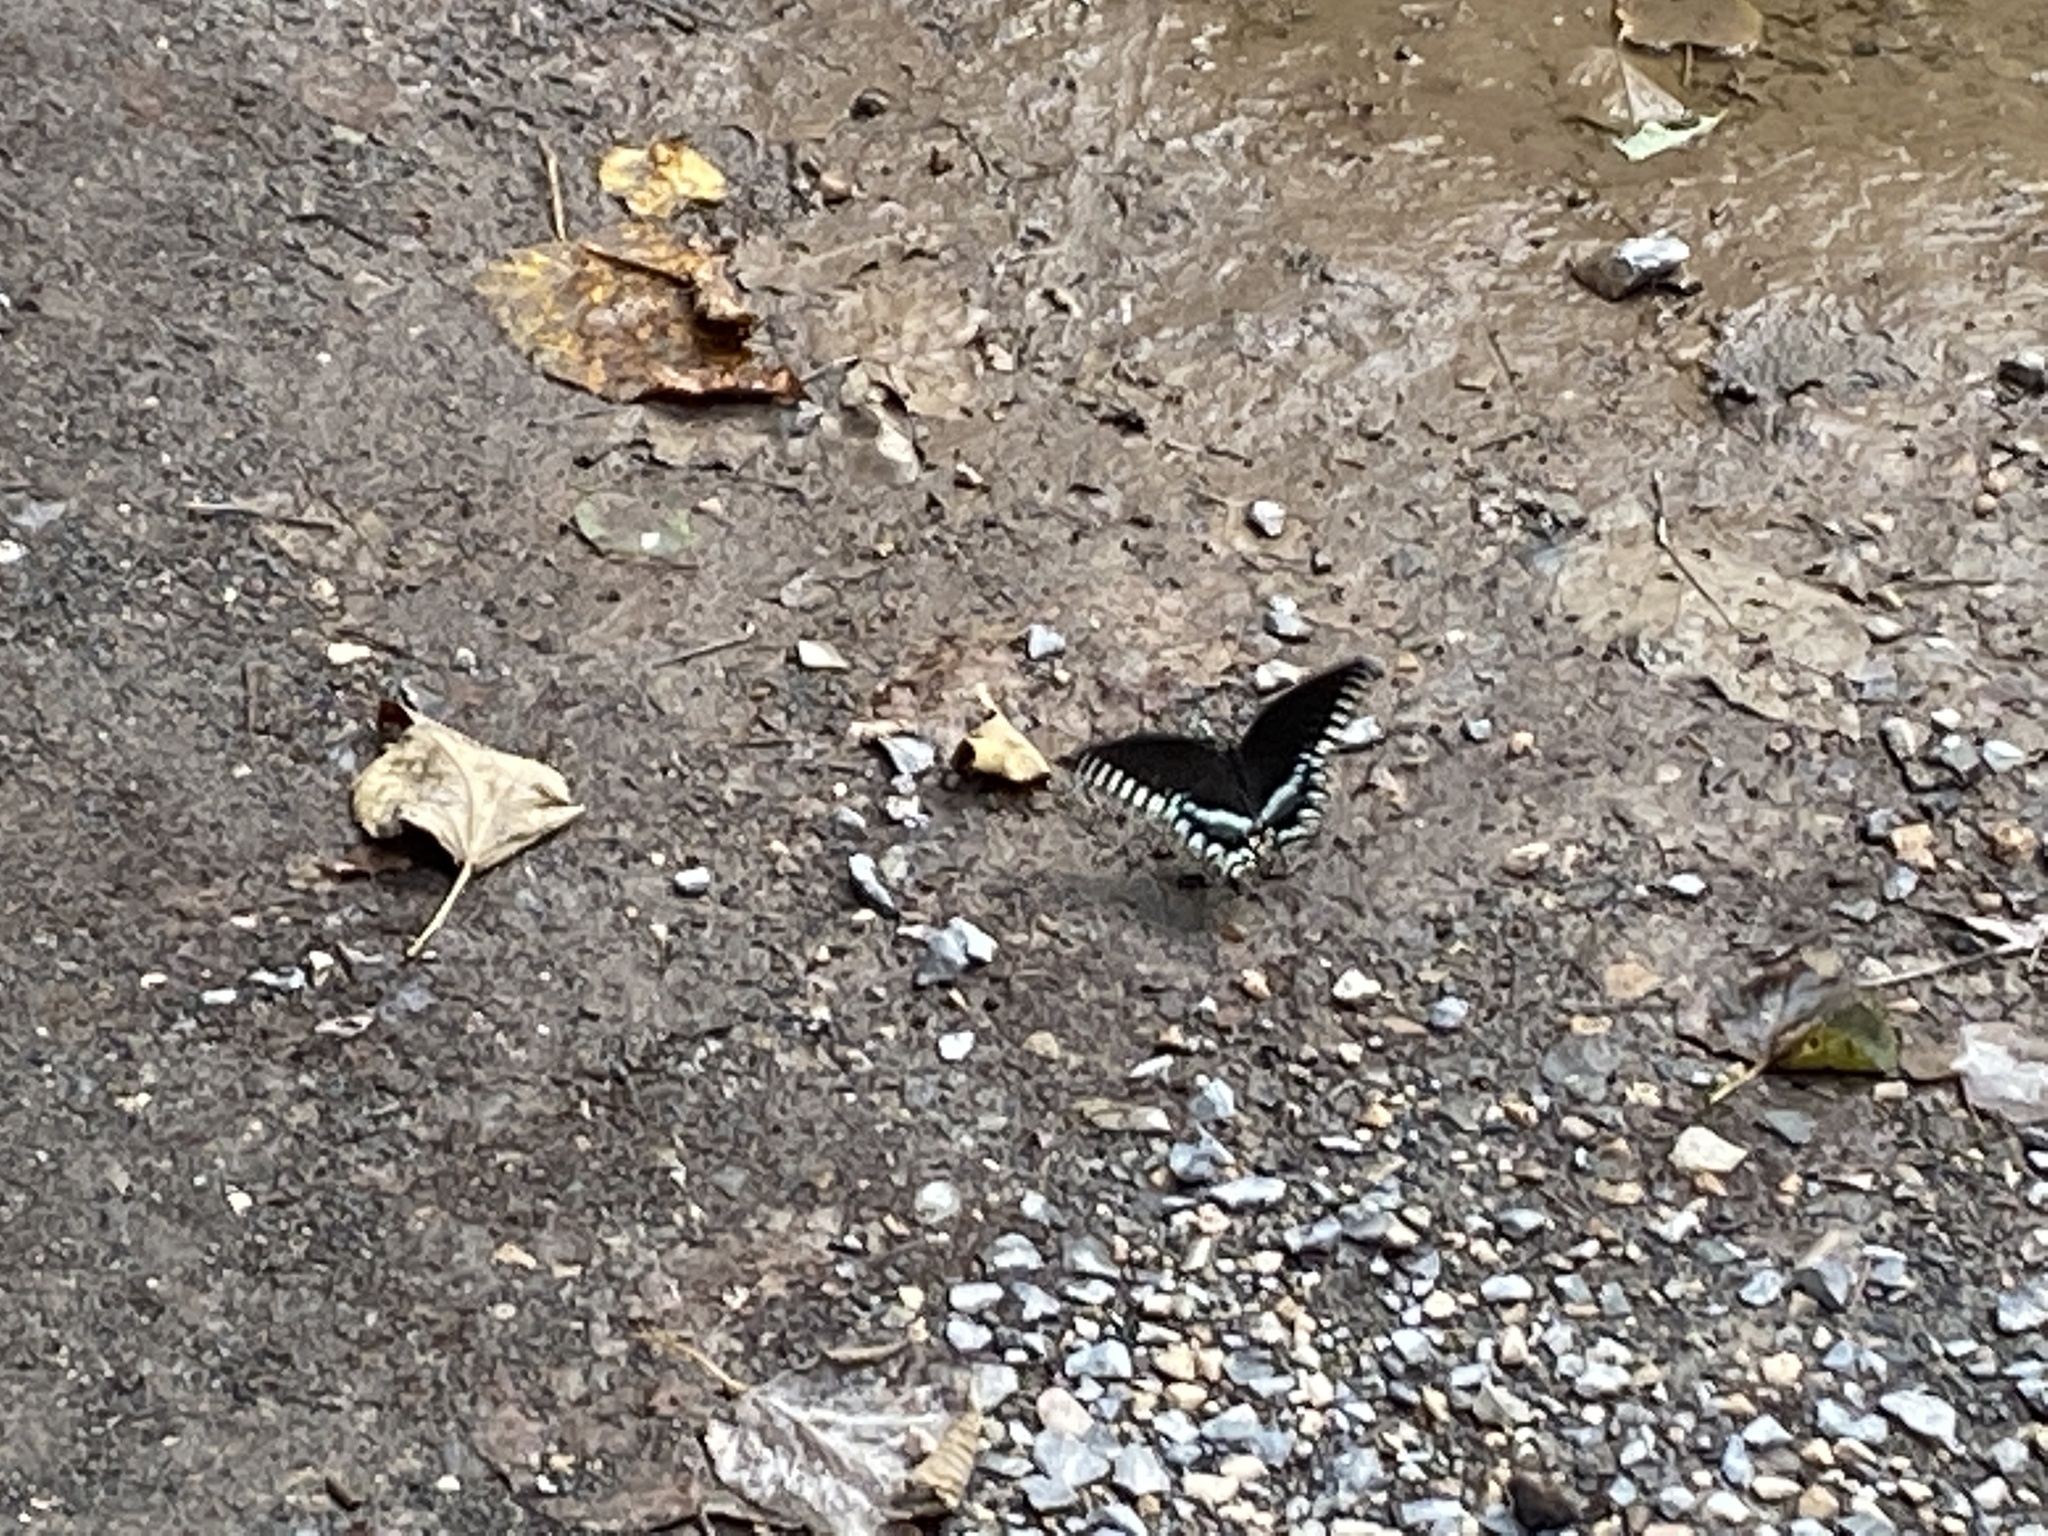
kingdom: Animalia
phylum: Arthropoda
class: Insecta
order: Lepidoptera
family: Papilionidae
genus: Papilio
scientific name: Papilio troilus
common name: Spicebush swallowtail
